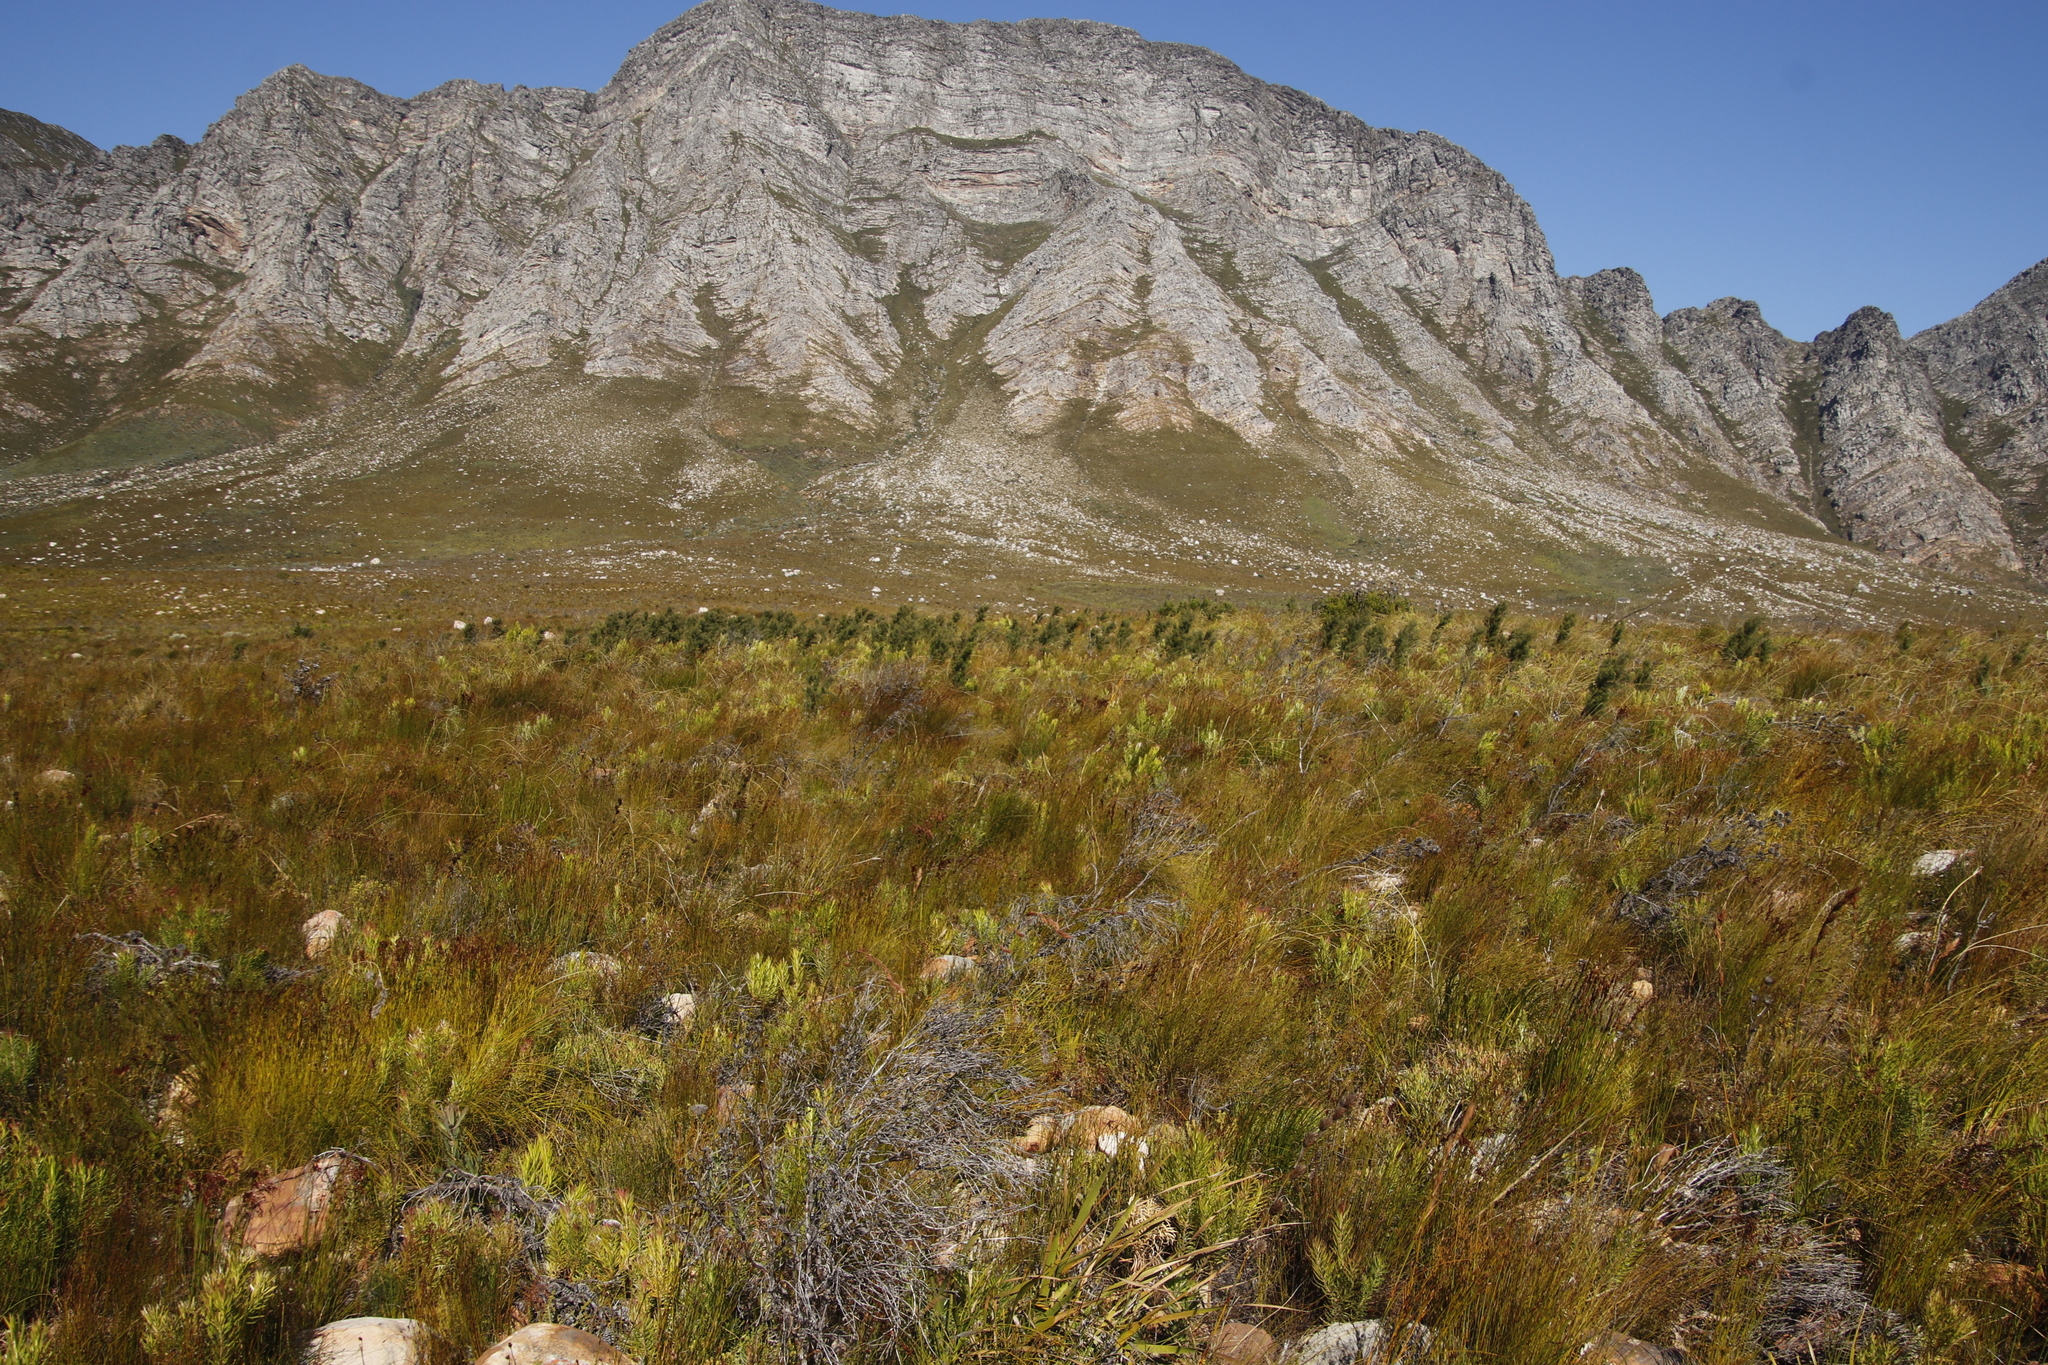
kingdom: Plantae
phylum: Tracheophyta
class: Magnoliopsida
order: Proteales
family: Proteaceae
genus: Hakea
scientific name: Hakea sericea
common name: Needle bush
